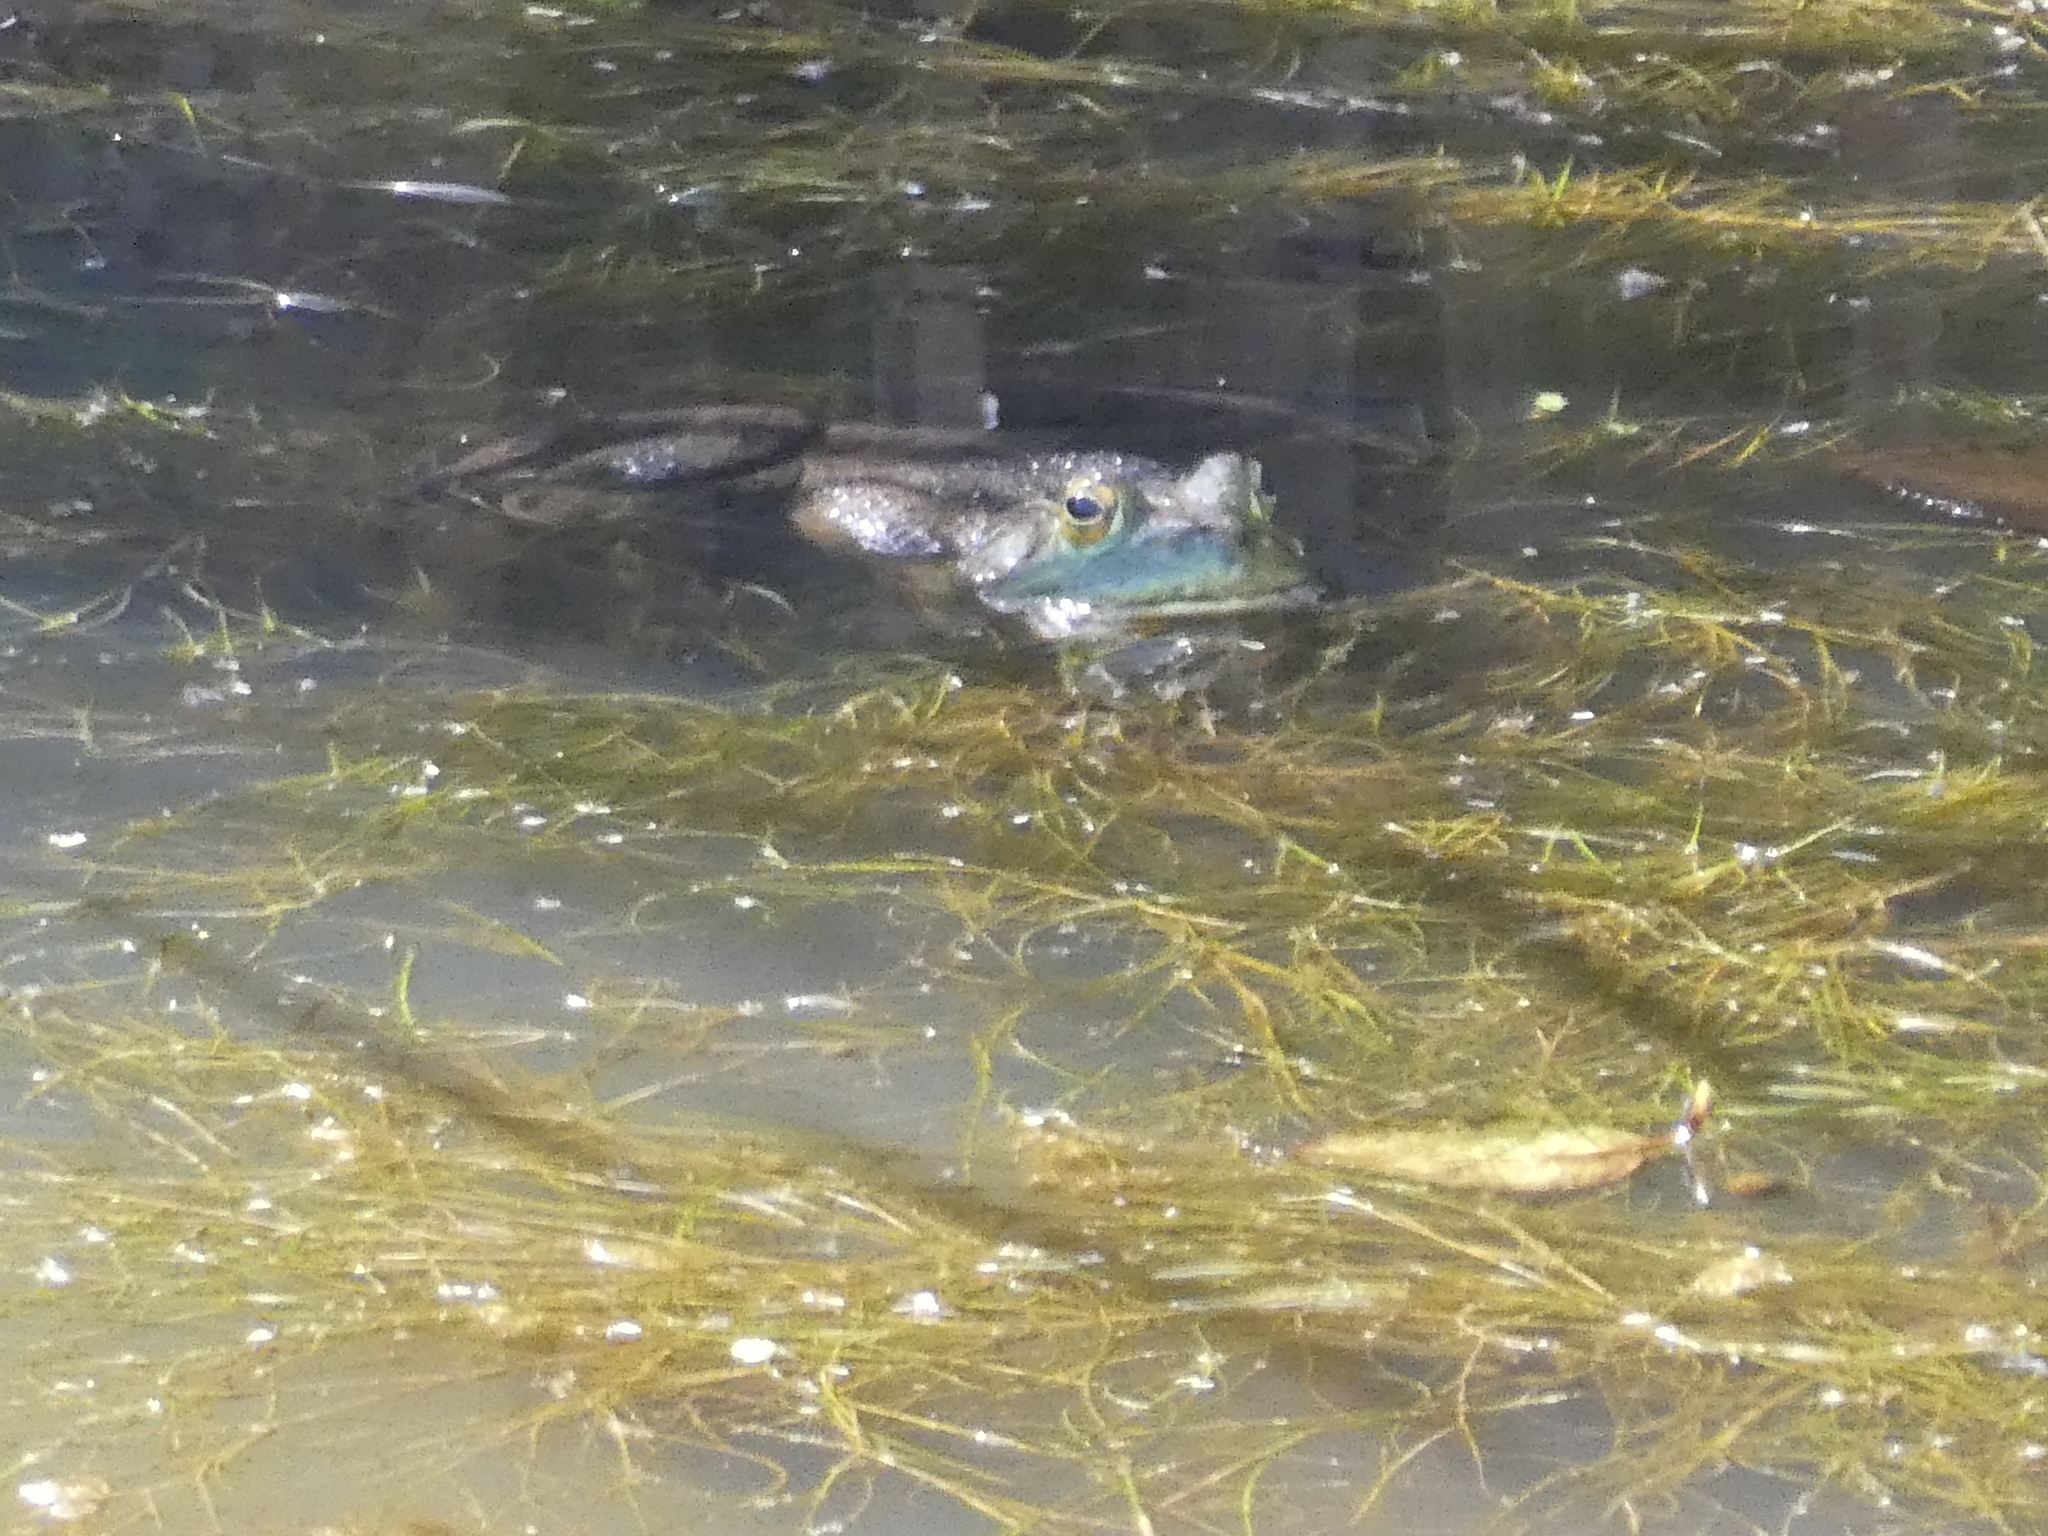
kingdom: Animalia
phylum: Chordata
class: Amphibia
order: Anura
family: Ranidae
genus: Lithobates
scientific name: Lithobates catesbeianus
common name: American bullfrog
